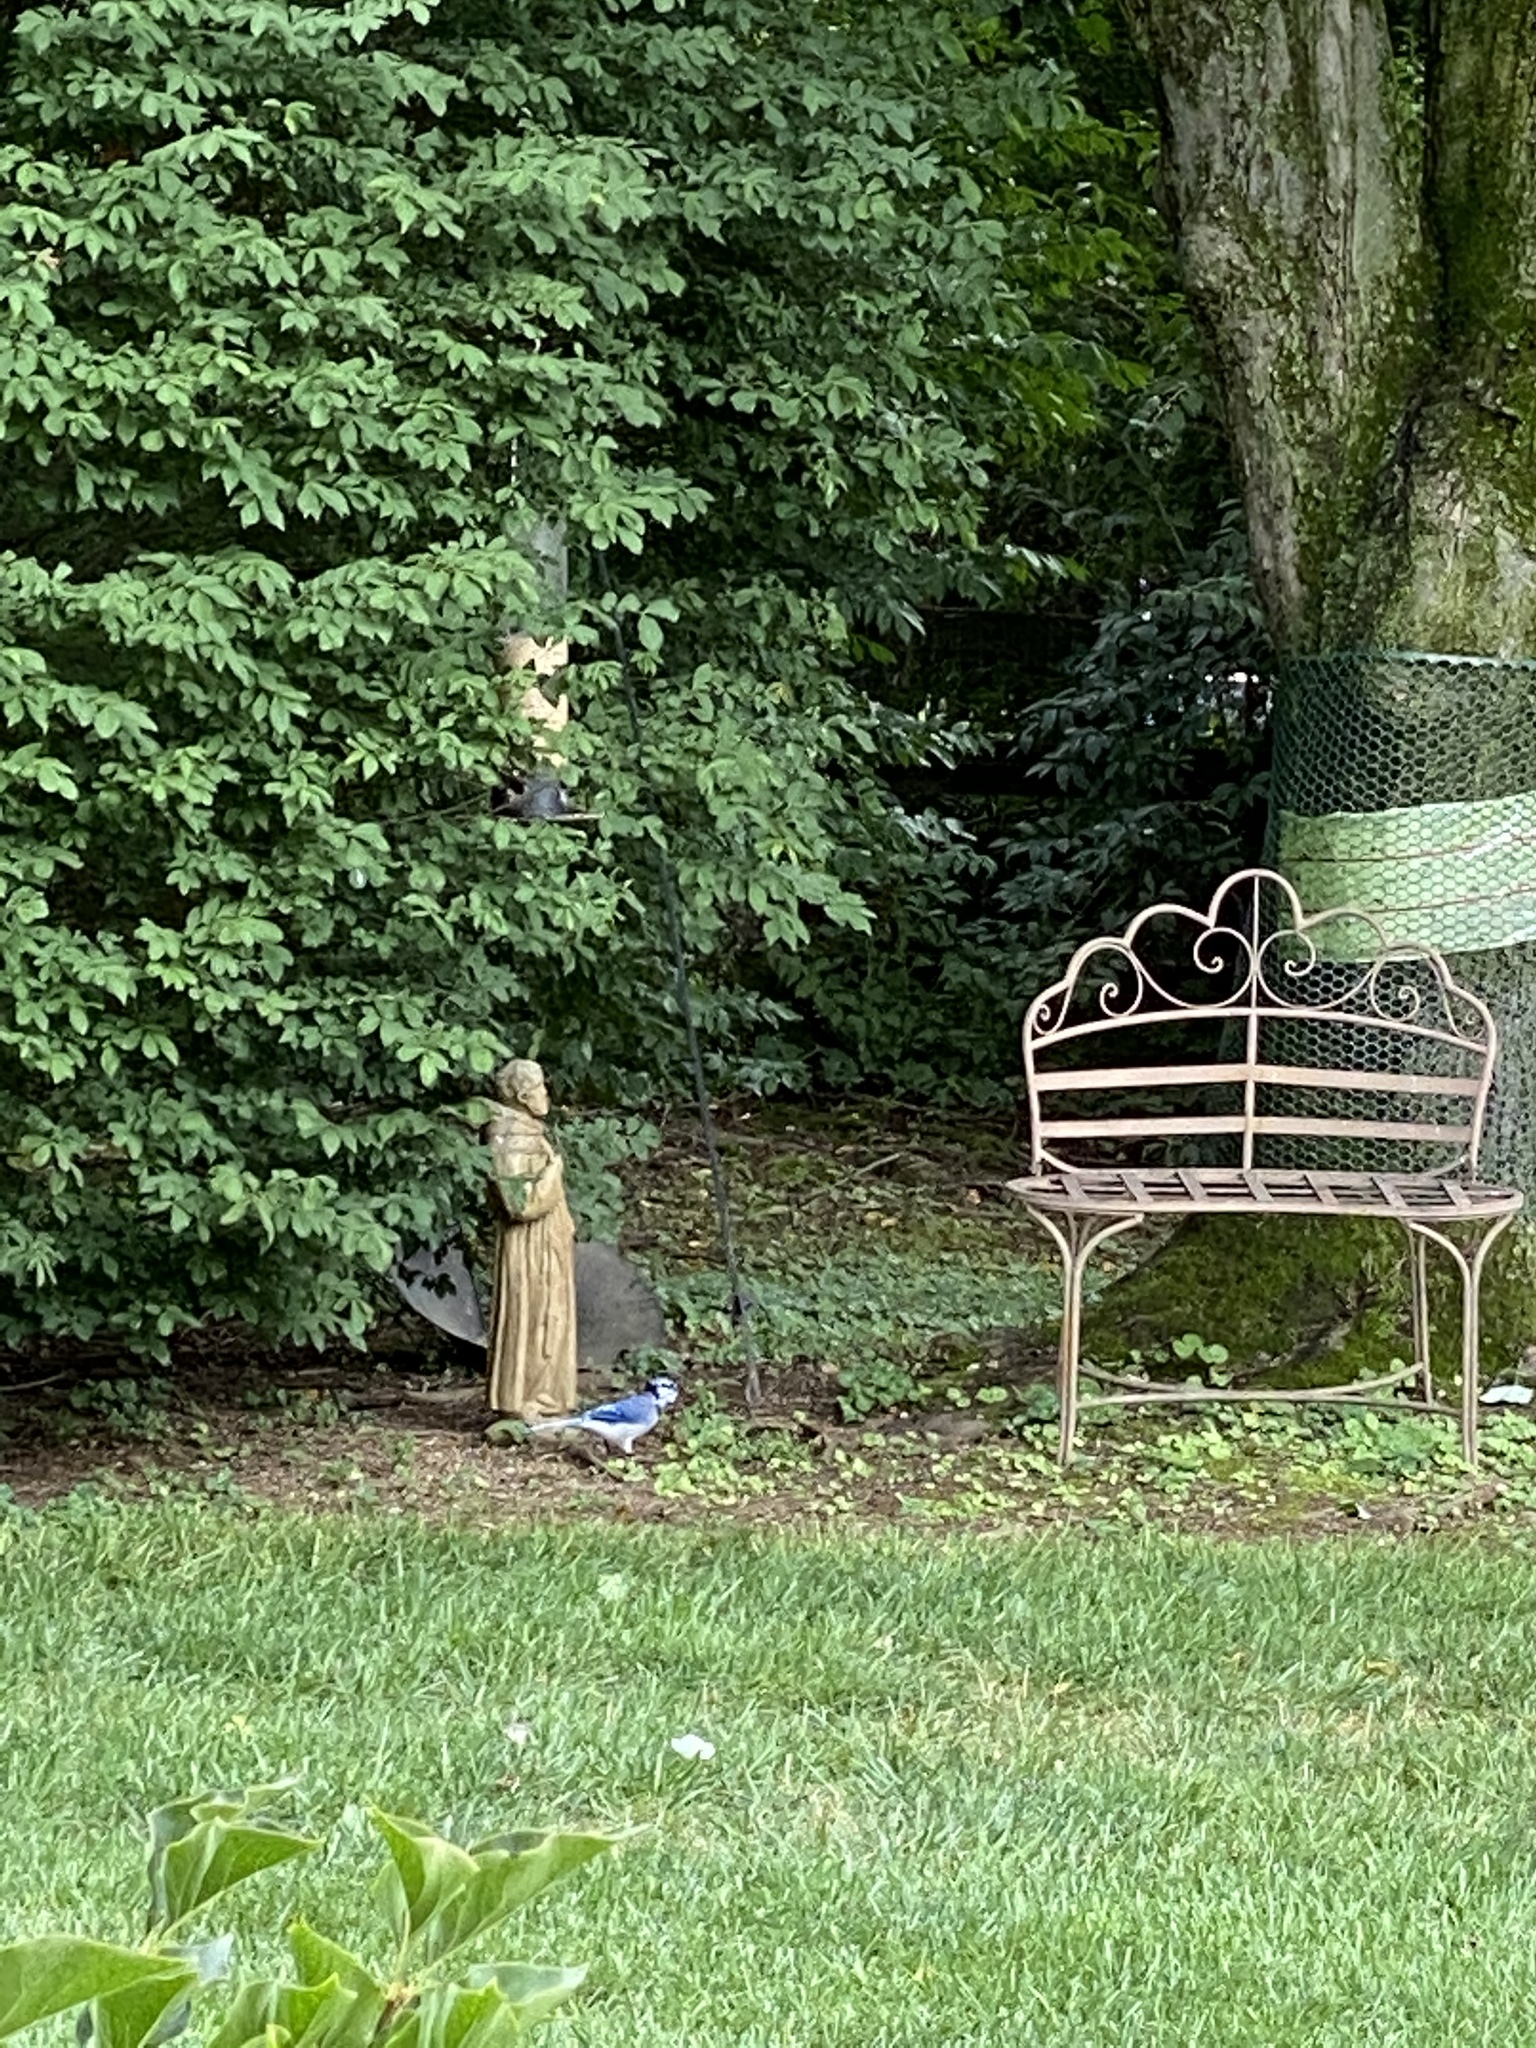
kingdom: Animalia
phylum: Chordata
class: Aves
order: Passeriformes
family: Corvidae
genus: Cyanocitta
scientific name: Cyanocitta cristata
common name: Blue jay
